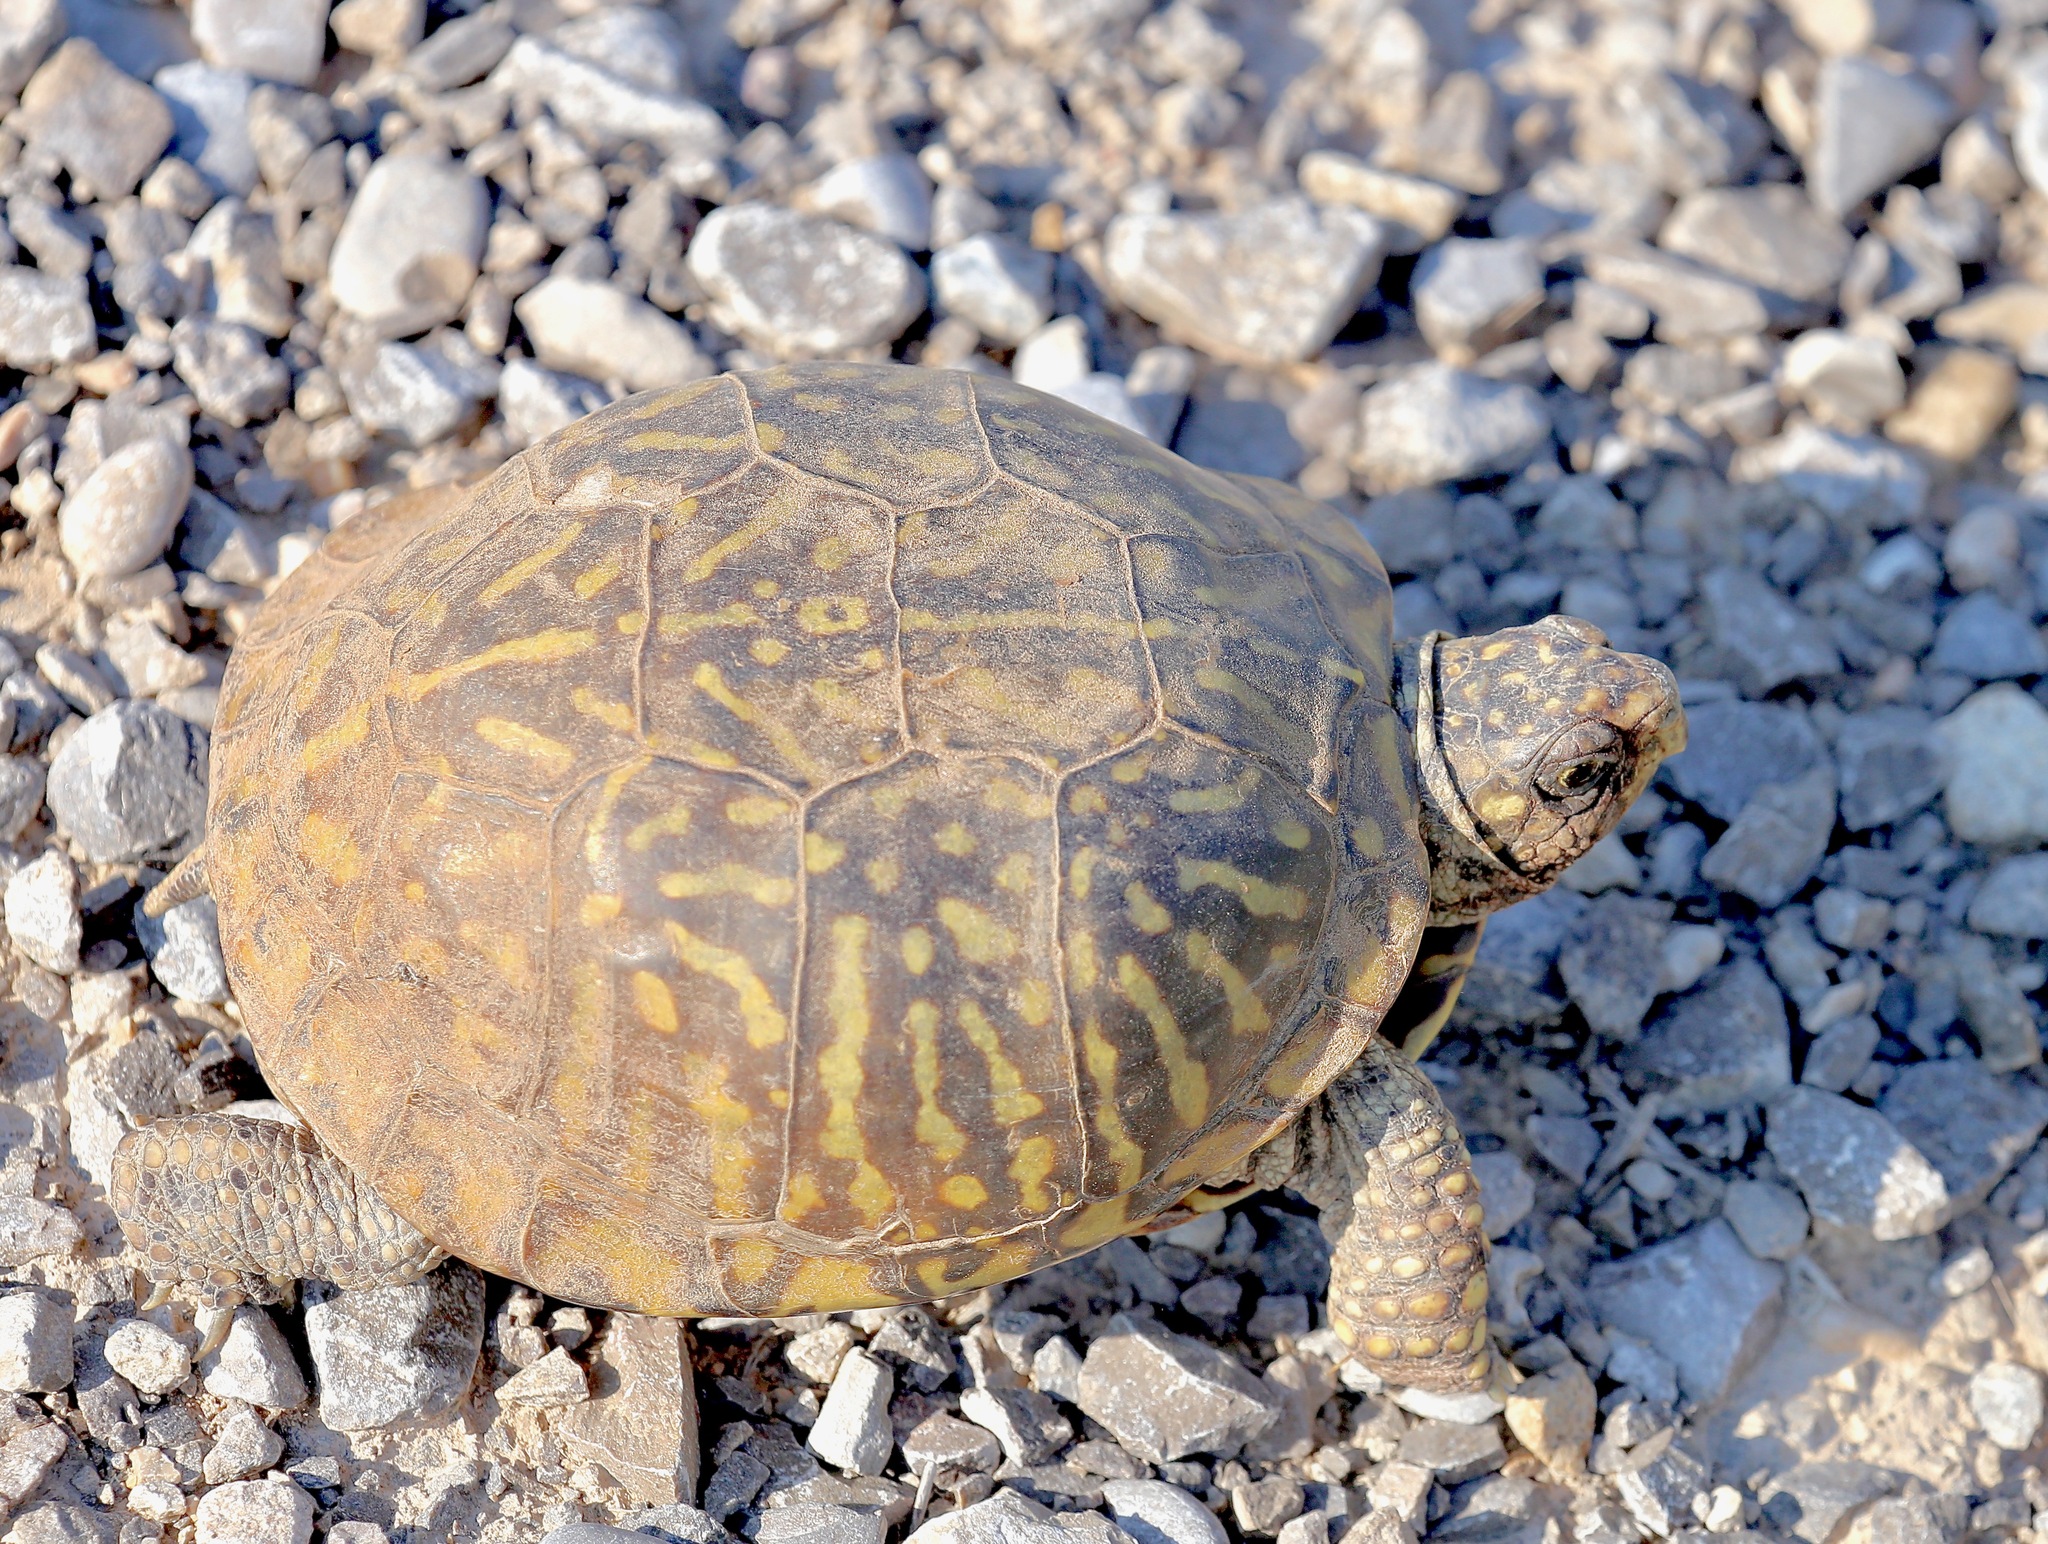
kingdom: Animalia
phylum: Chordata
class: Testudines
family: Emydidae
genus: Terrapene
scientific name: Terrapene ornata
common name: Western box turtle
